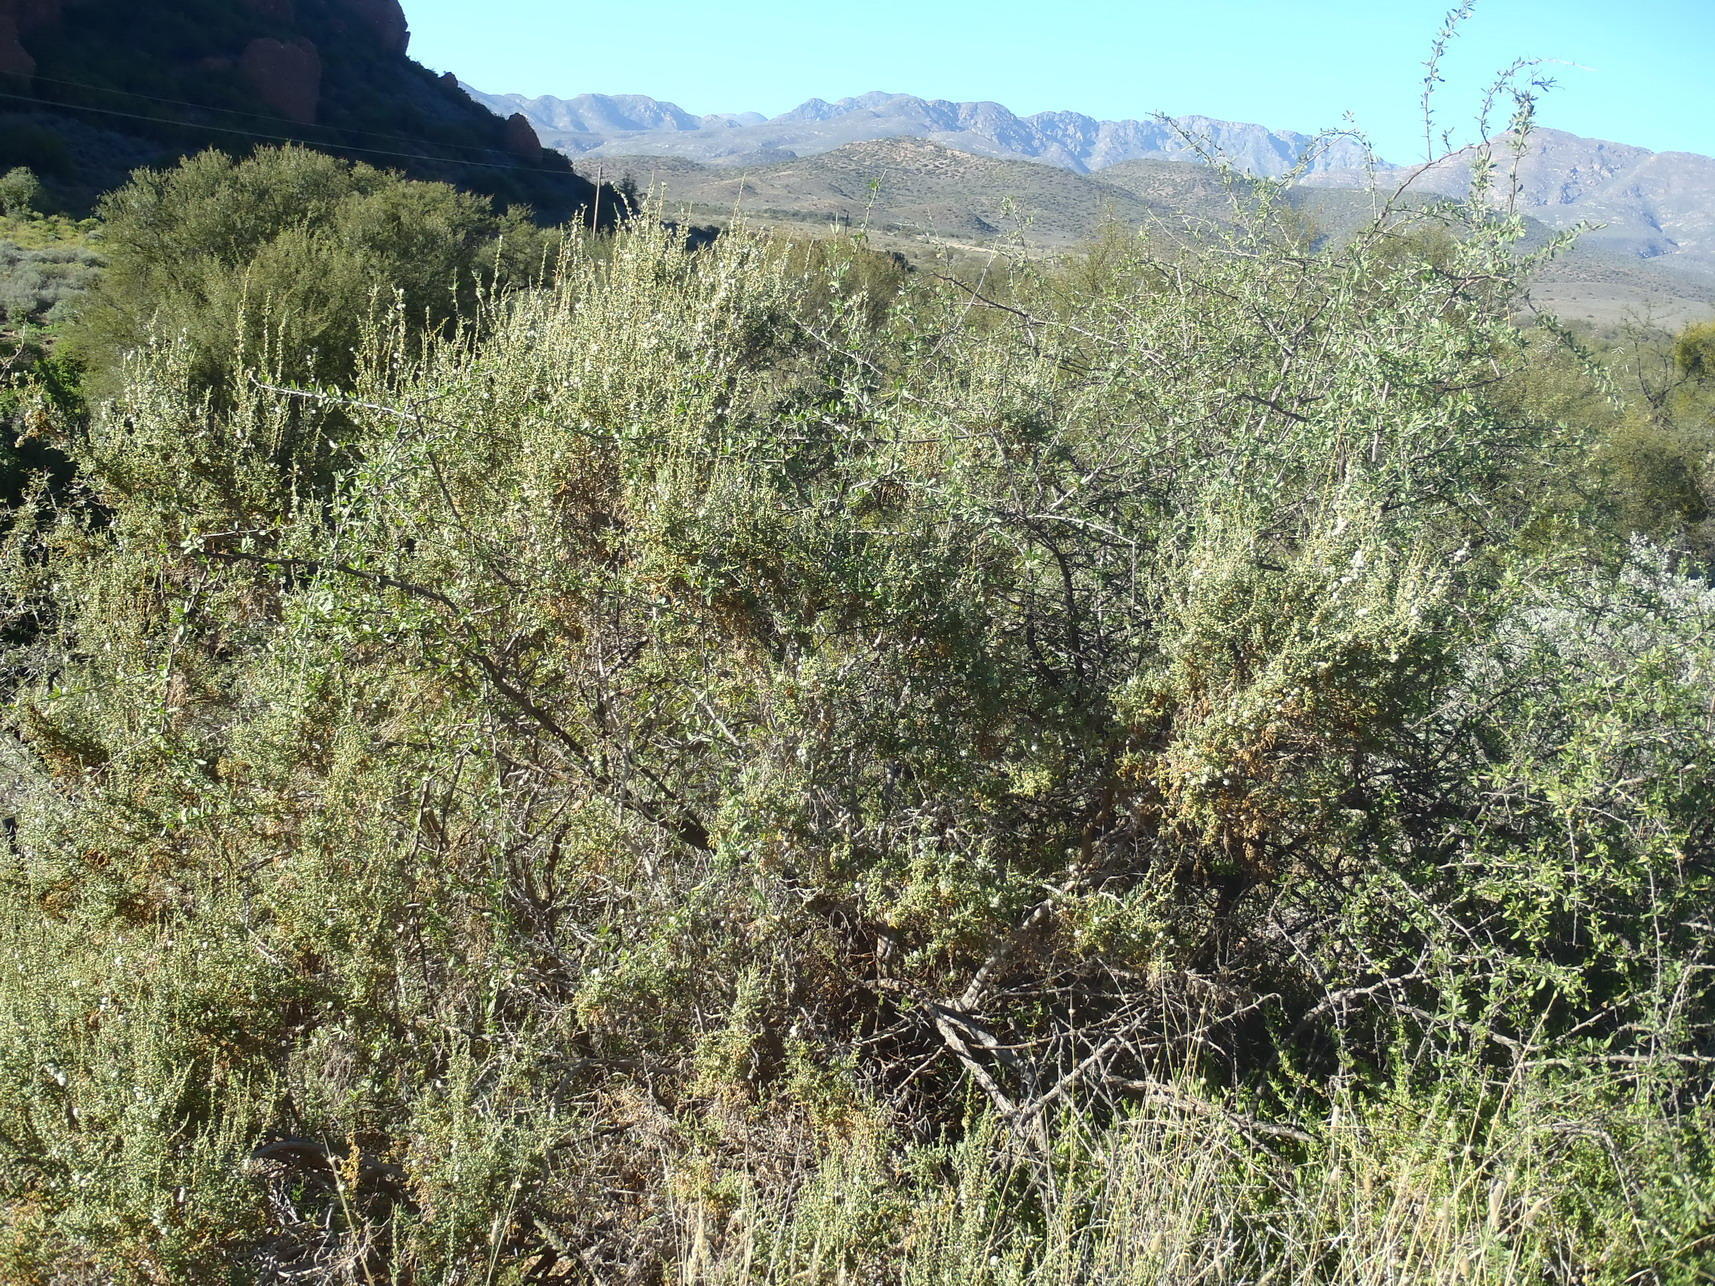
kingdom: Plantae
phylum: Tracheophyta
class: Magnoliopsida
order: Caryophyllales
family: Amaranthaceae
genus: Caroxylon
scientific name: Caroxylon aphyllum
